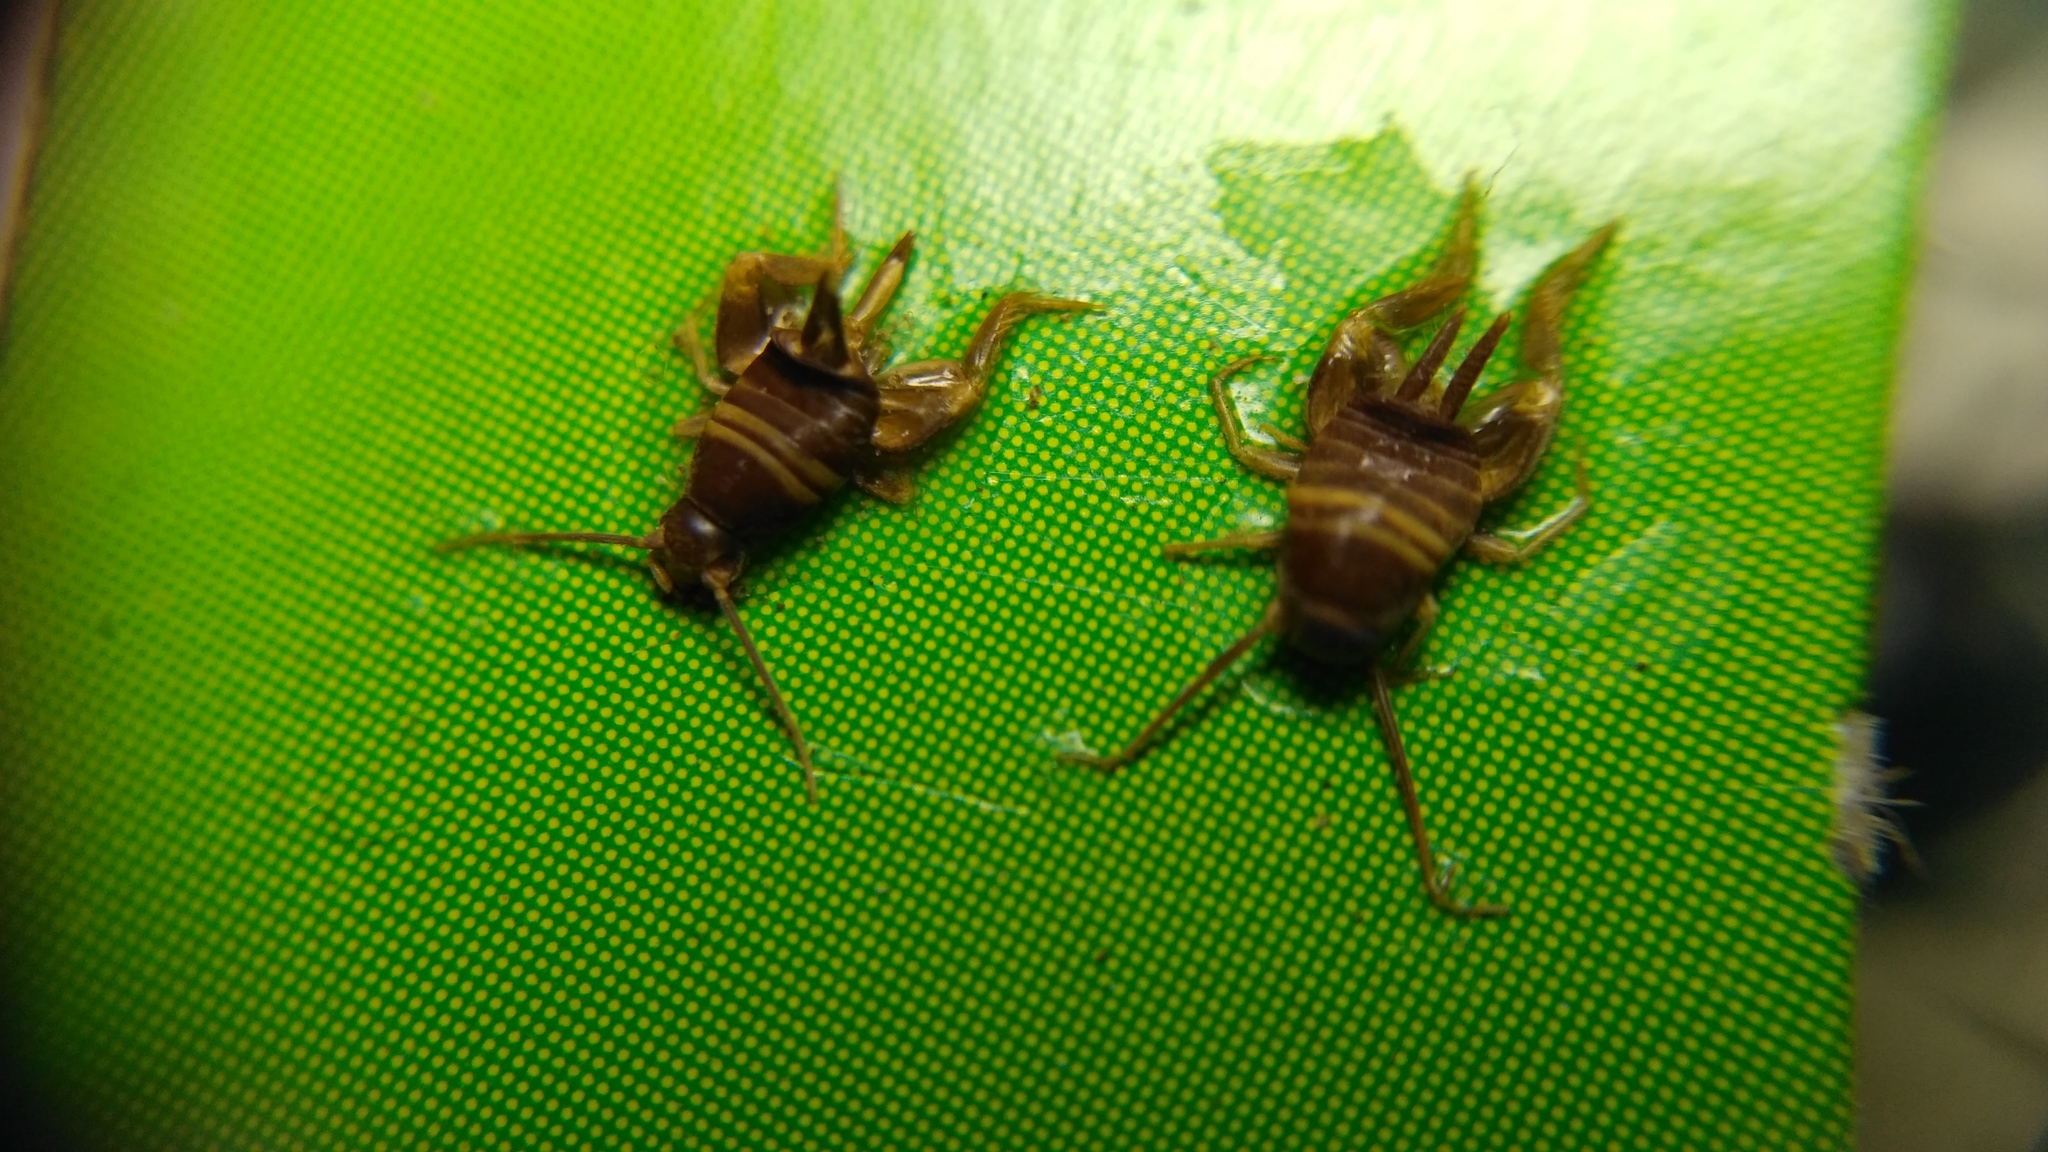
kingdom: Animalia
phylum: Arthropoda
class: Insecta
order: Orthoptera
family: Myrmecophilidae
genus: Myrmecophilus
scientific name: Myrmecophilus acervorum
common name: Ants-nest cricket
